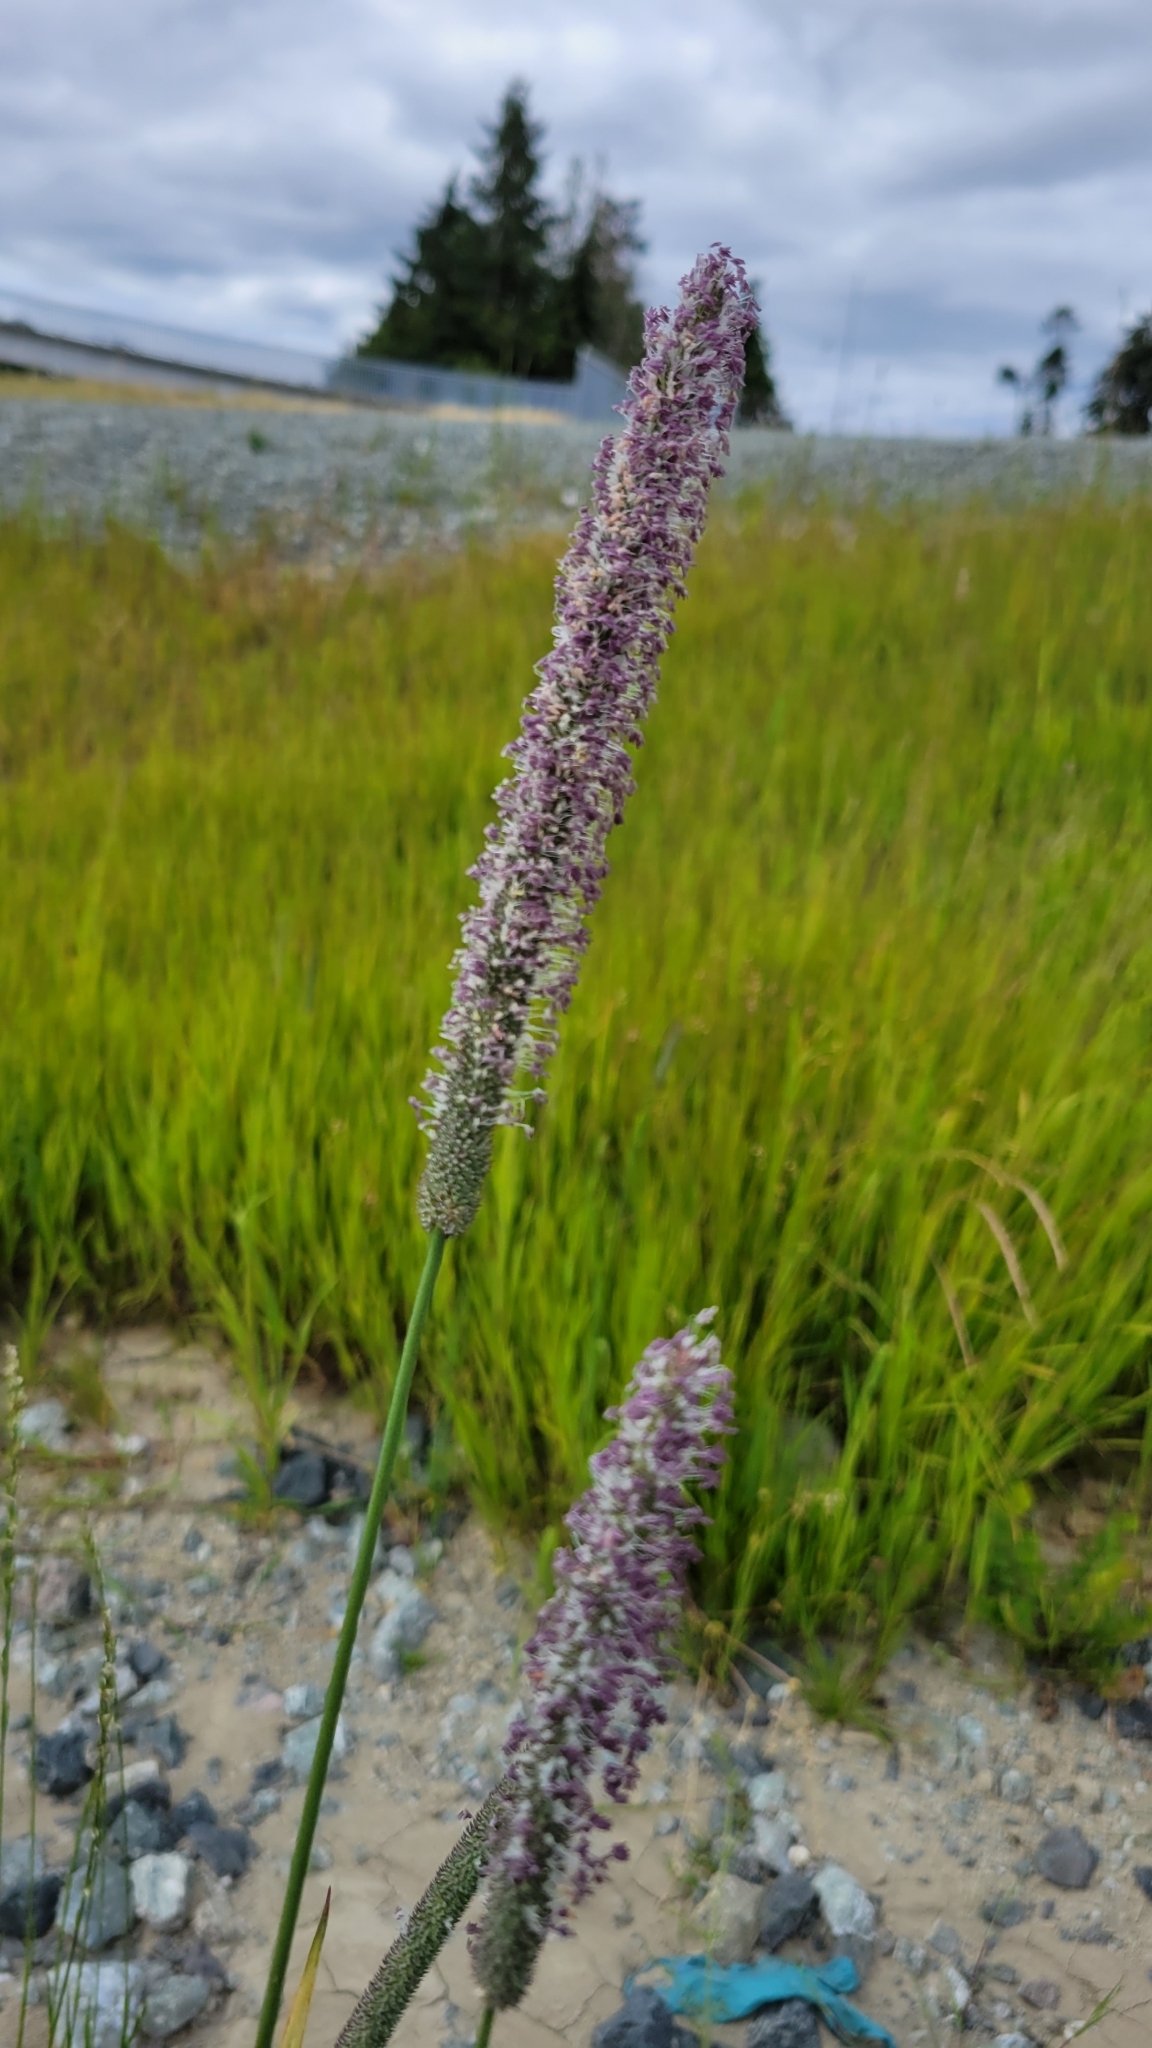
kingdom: Plantae
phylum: Tracheophyta
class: Liliopsida
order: Poales
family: Poaceae
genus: Phleum
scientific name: Phleum pratense
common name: Timothy grass
